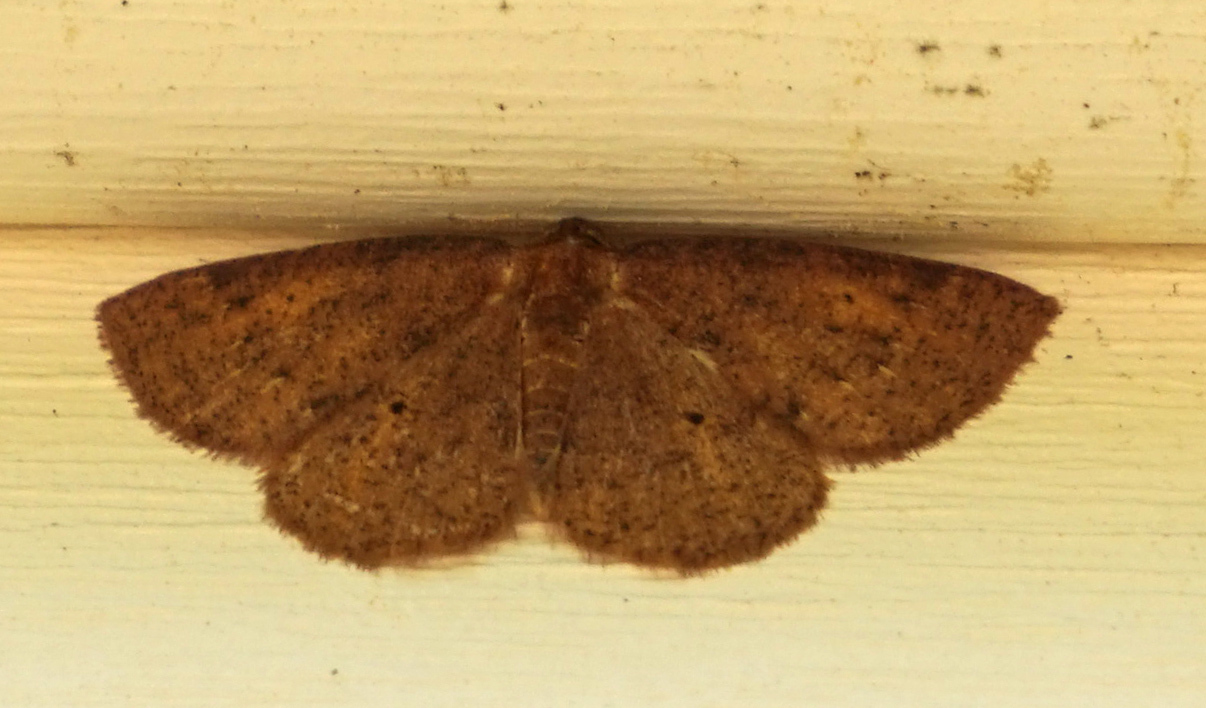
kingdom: Animalia
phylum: Arthropoda
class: Insecta
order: Lepidoptera
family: Geometridae
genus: Ilexia
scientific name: Ilexia intractata
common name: Black-dotted ruddy moth
